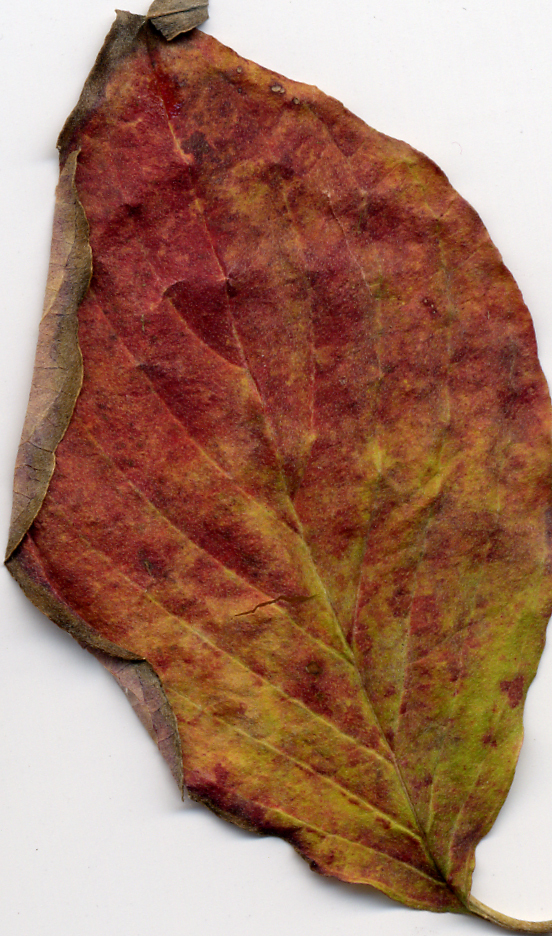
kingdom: Plantae
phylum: Tracheophyta
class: Magnoliopsida
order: Cornales
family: Cornaceae
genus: Cornus
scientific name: Cornus florida
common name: Flowering dogwood
